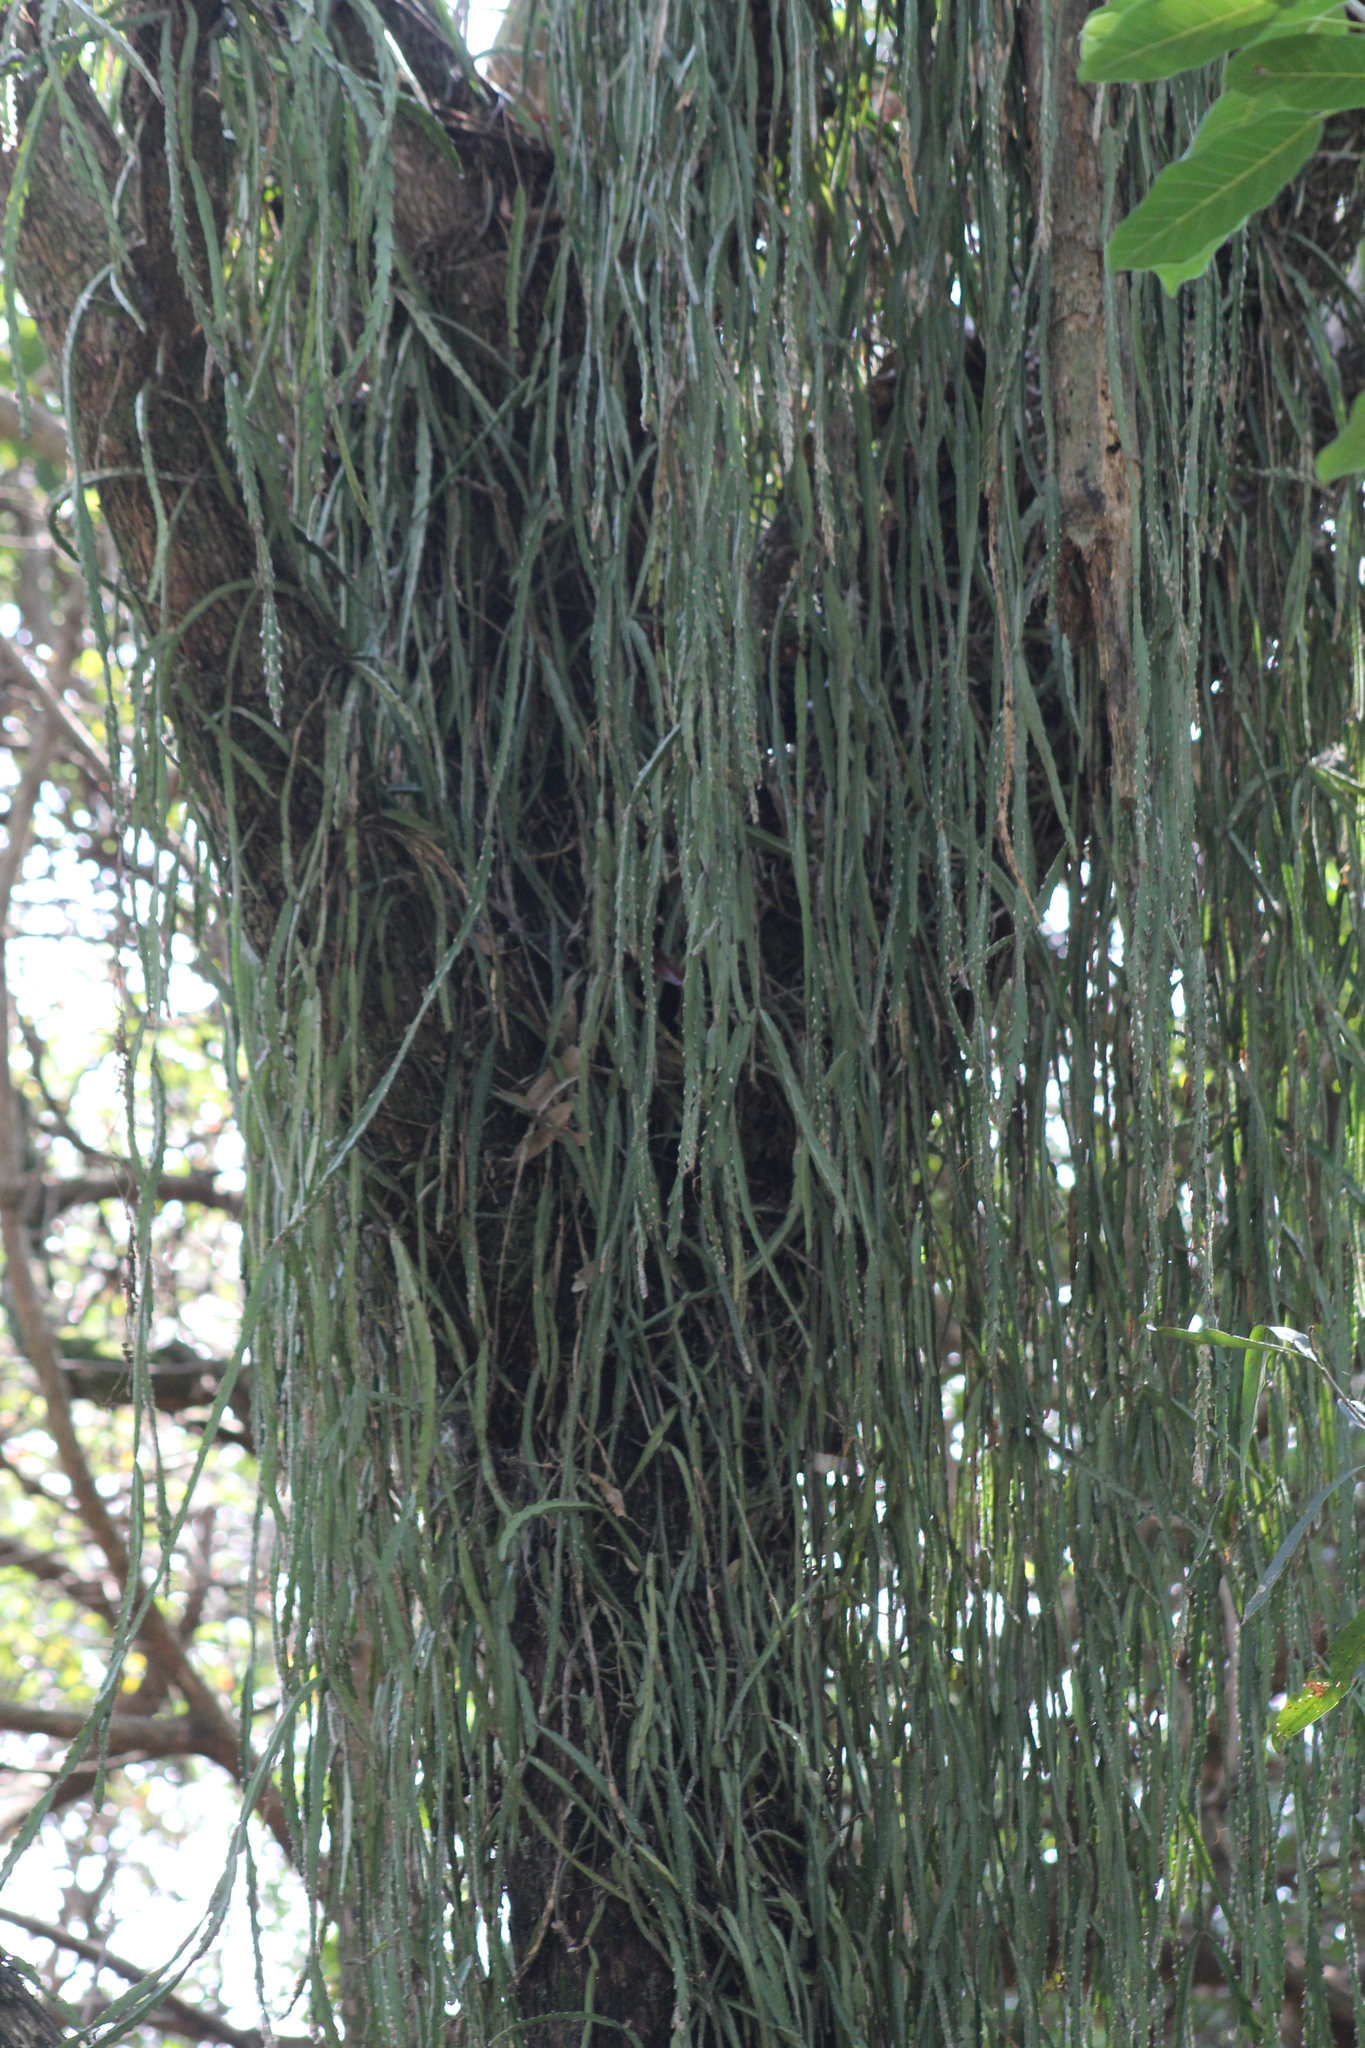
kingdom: Plantae
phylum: Tracheophyta
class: Magnoliopsida
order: Caryophyllales
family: Cactaceae
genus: Lepismium
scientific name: Lepismium cruciforme
